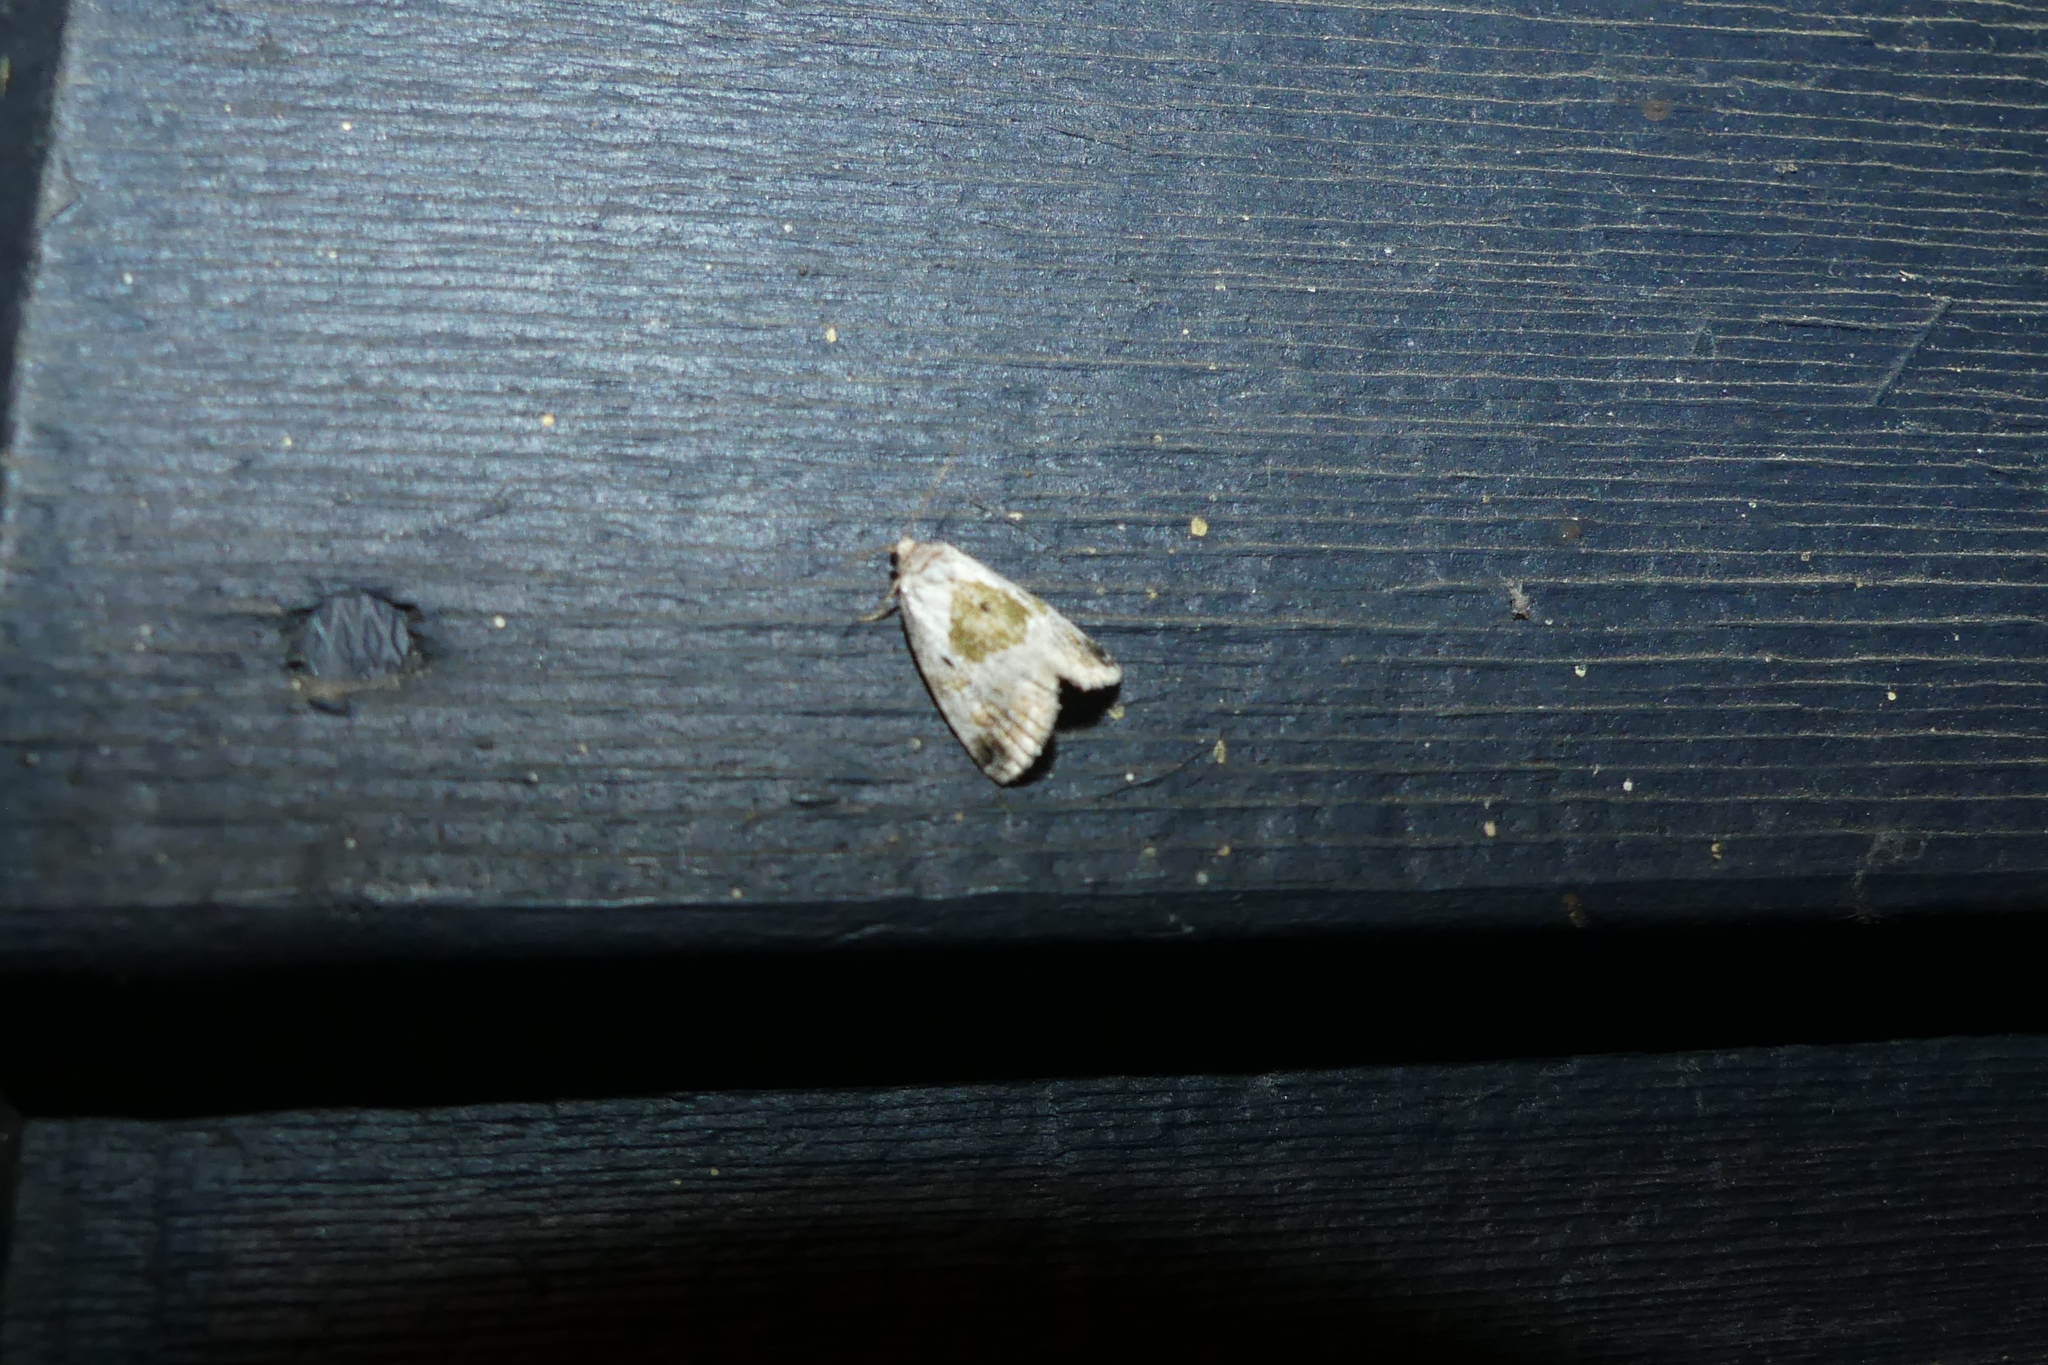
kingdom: Animalia
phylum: Arthropoda
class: Insecta
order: Lepidoptera
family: Noctuidae
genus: Maliattha
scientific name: Maliattha synochitis
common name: Black-dotted glyph
